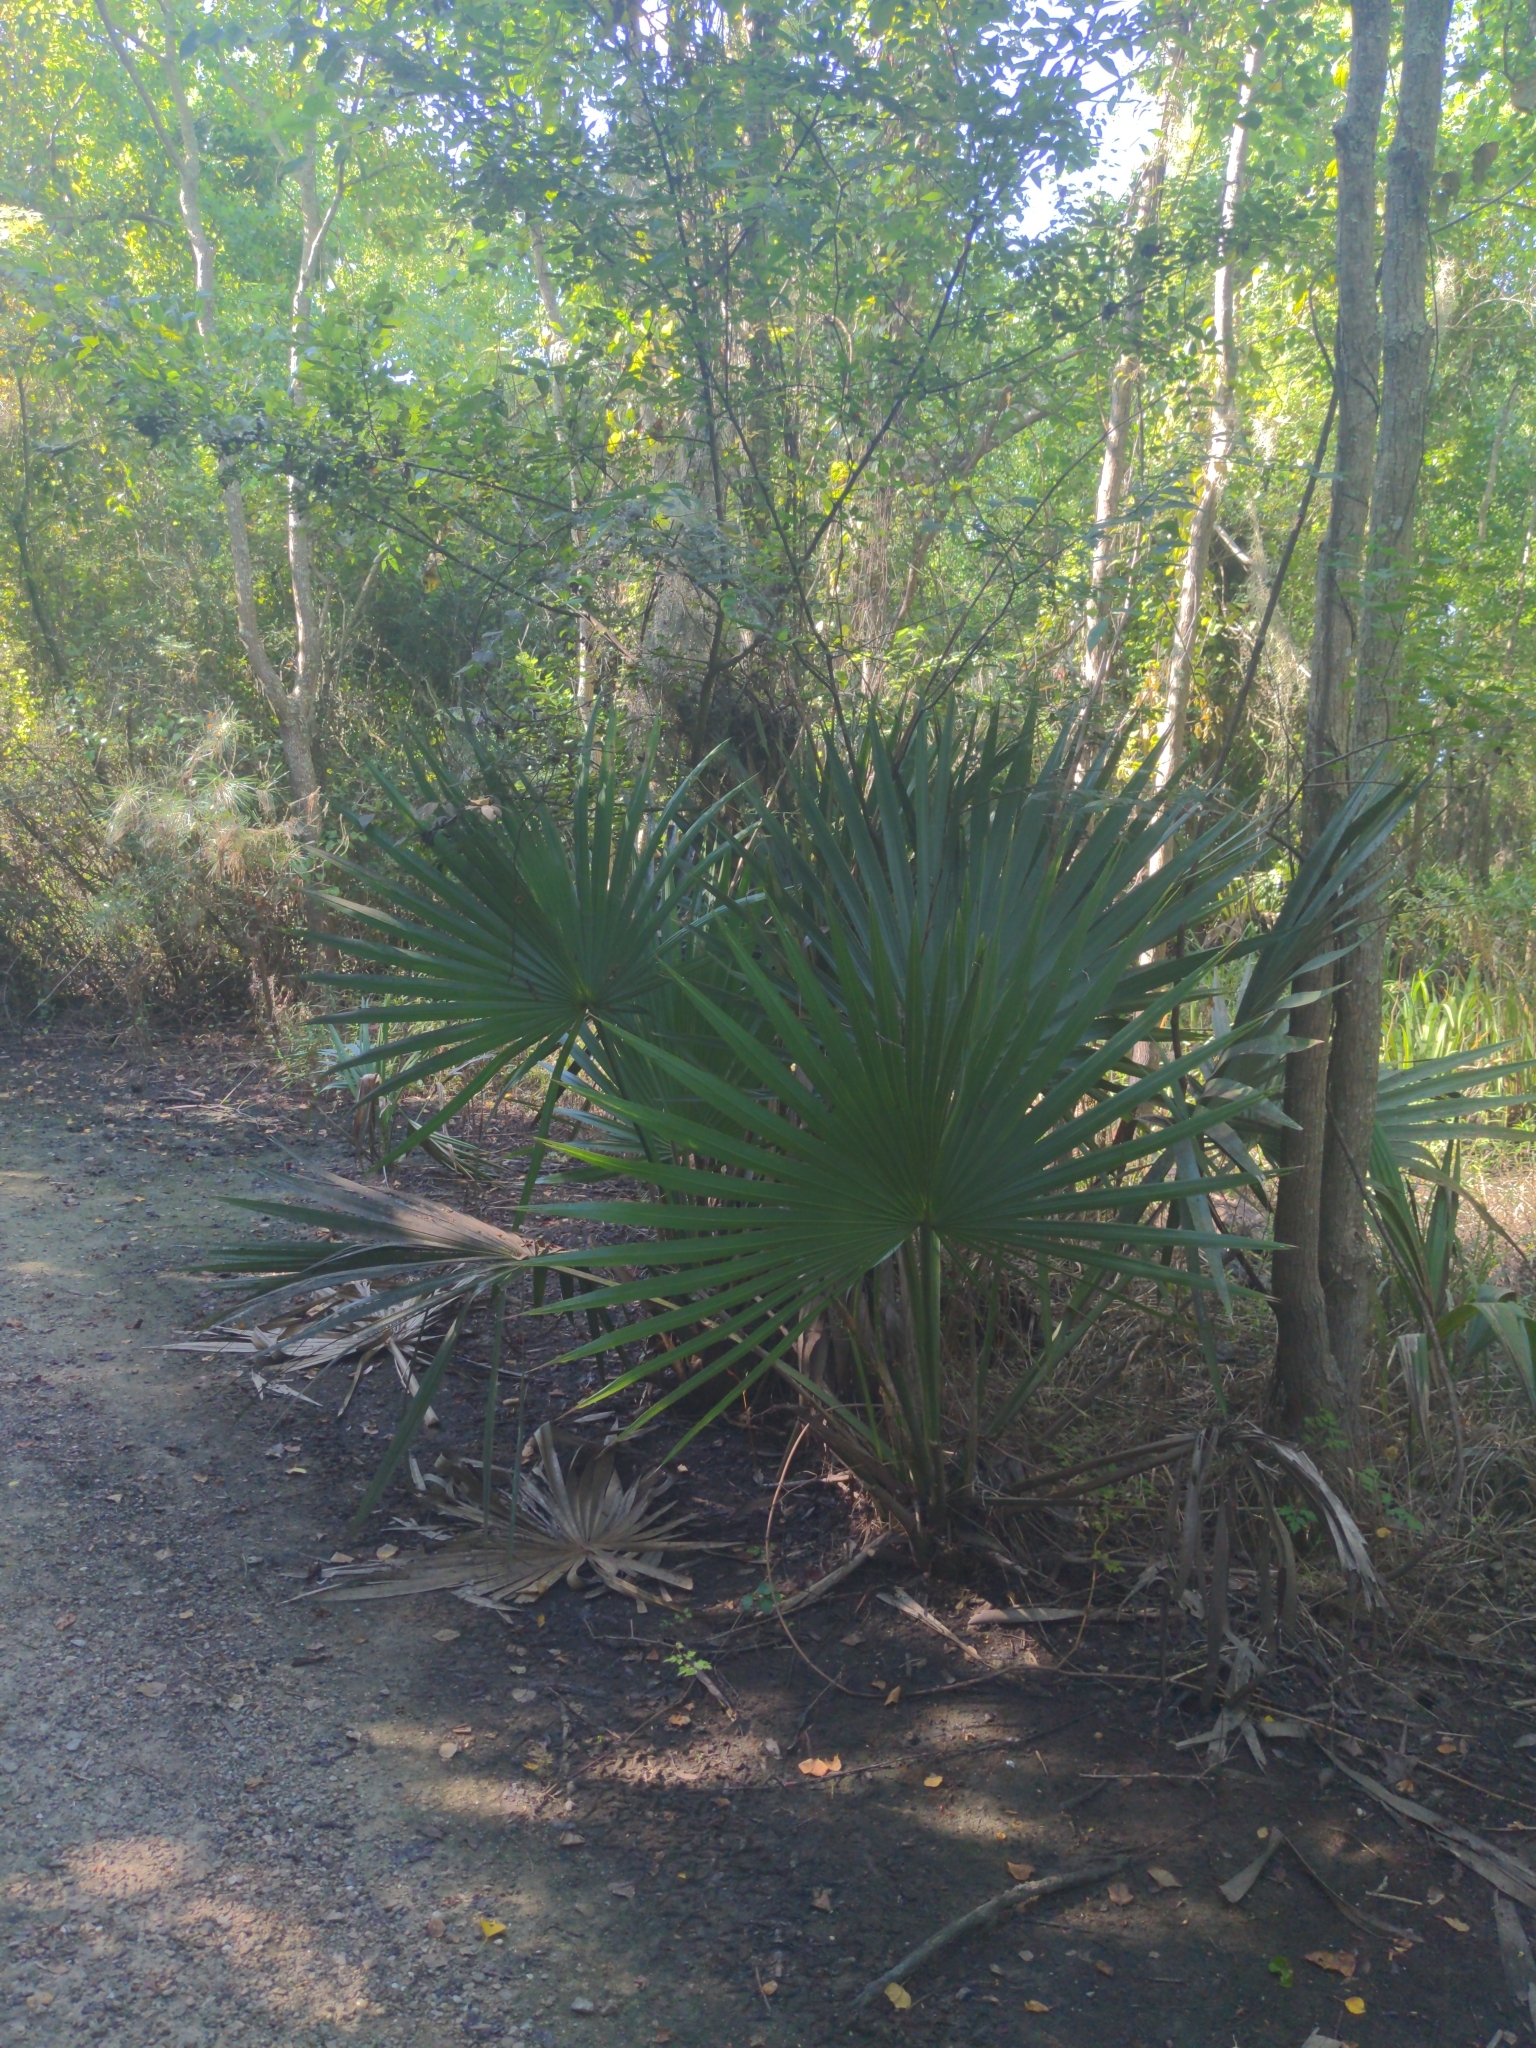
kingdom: Plantae
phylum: Tracheophyta
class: Liliopsida
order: Arecales
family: Arecaceae
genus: Sabal
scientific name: Sabal minor
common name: Dwarf palmetto
